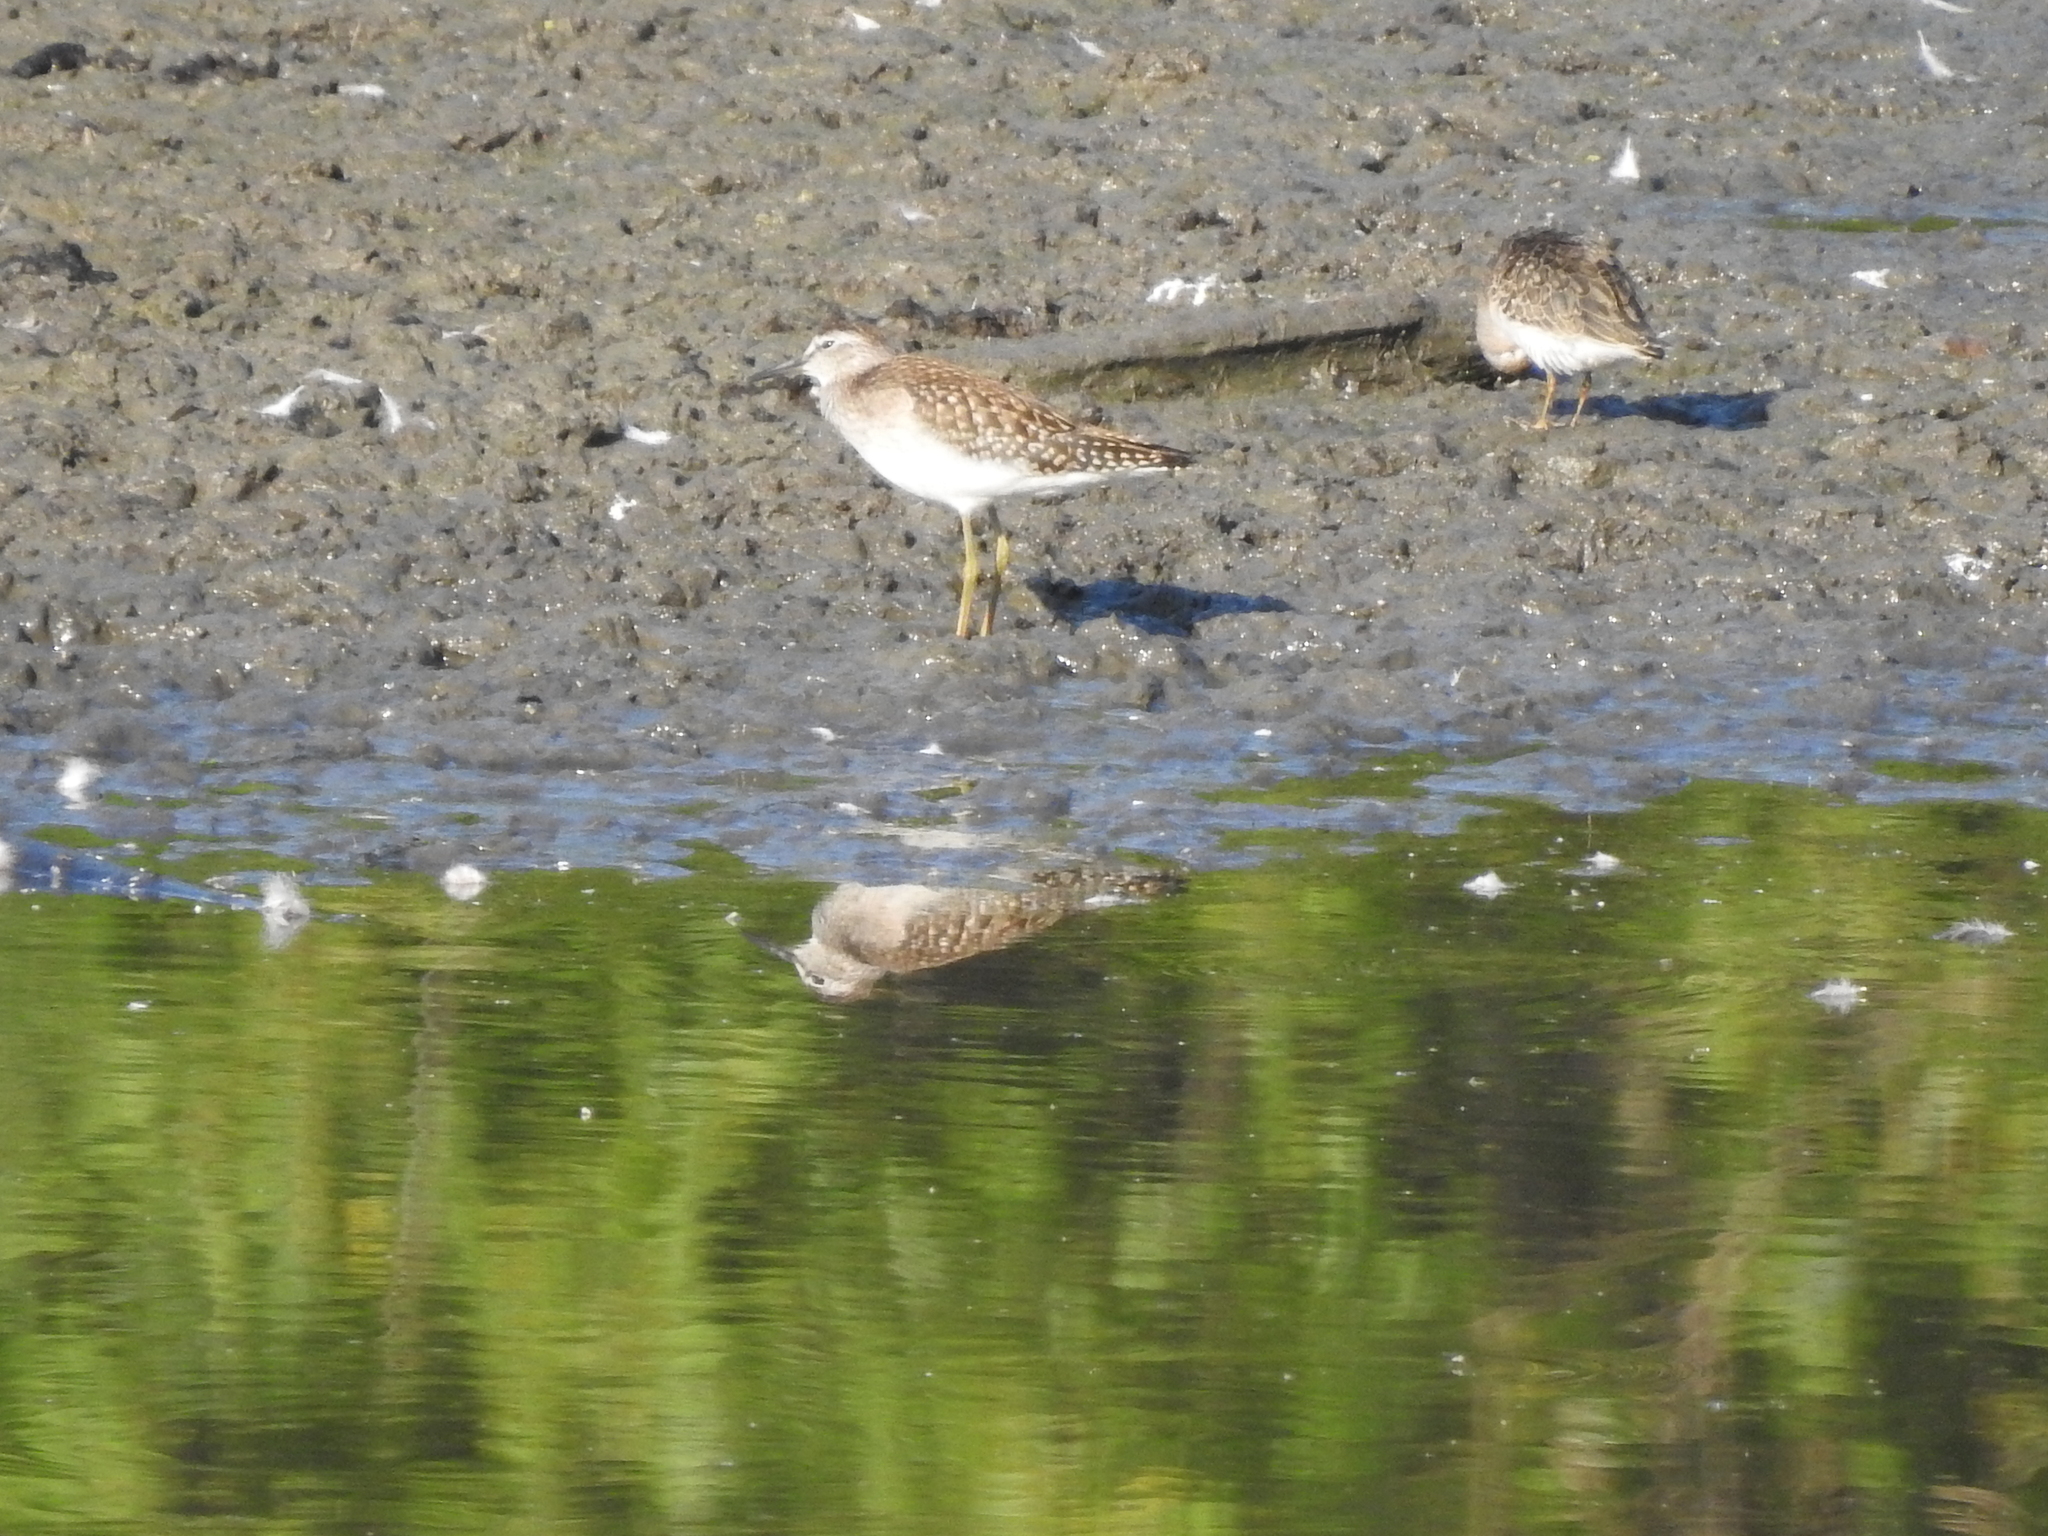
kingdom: Animalia
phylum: Chordata
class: Aves
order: Charadriiformes
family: Scolopacidae
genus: Tringa
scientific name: Tringa glareola
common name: Wood sandpiper
